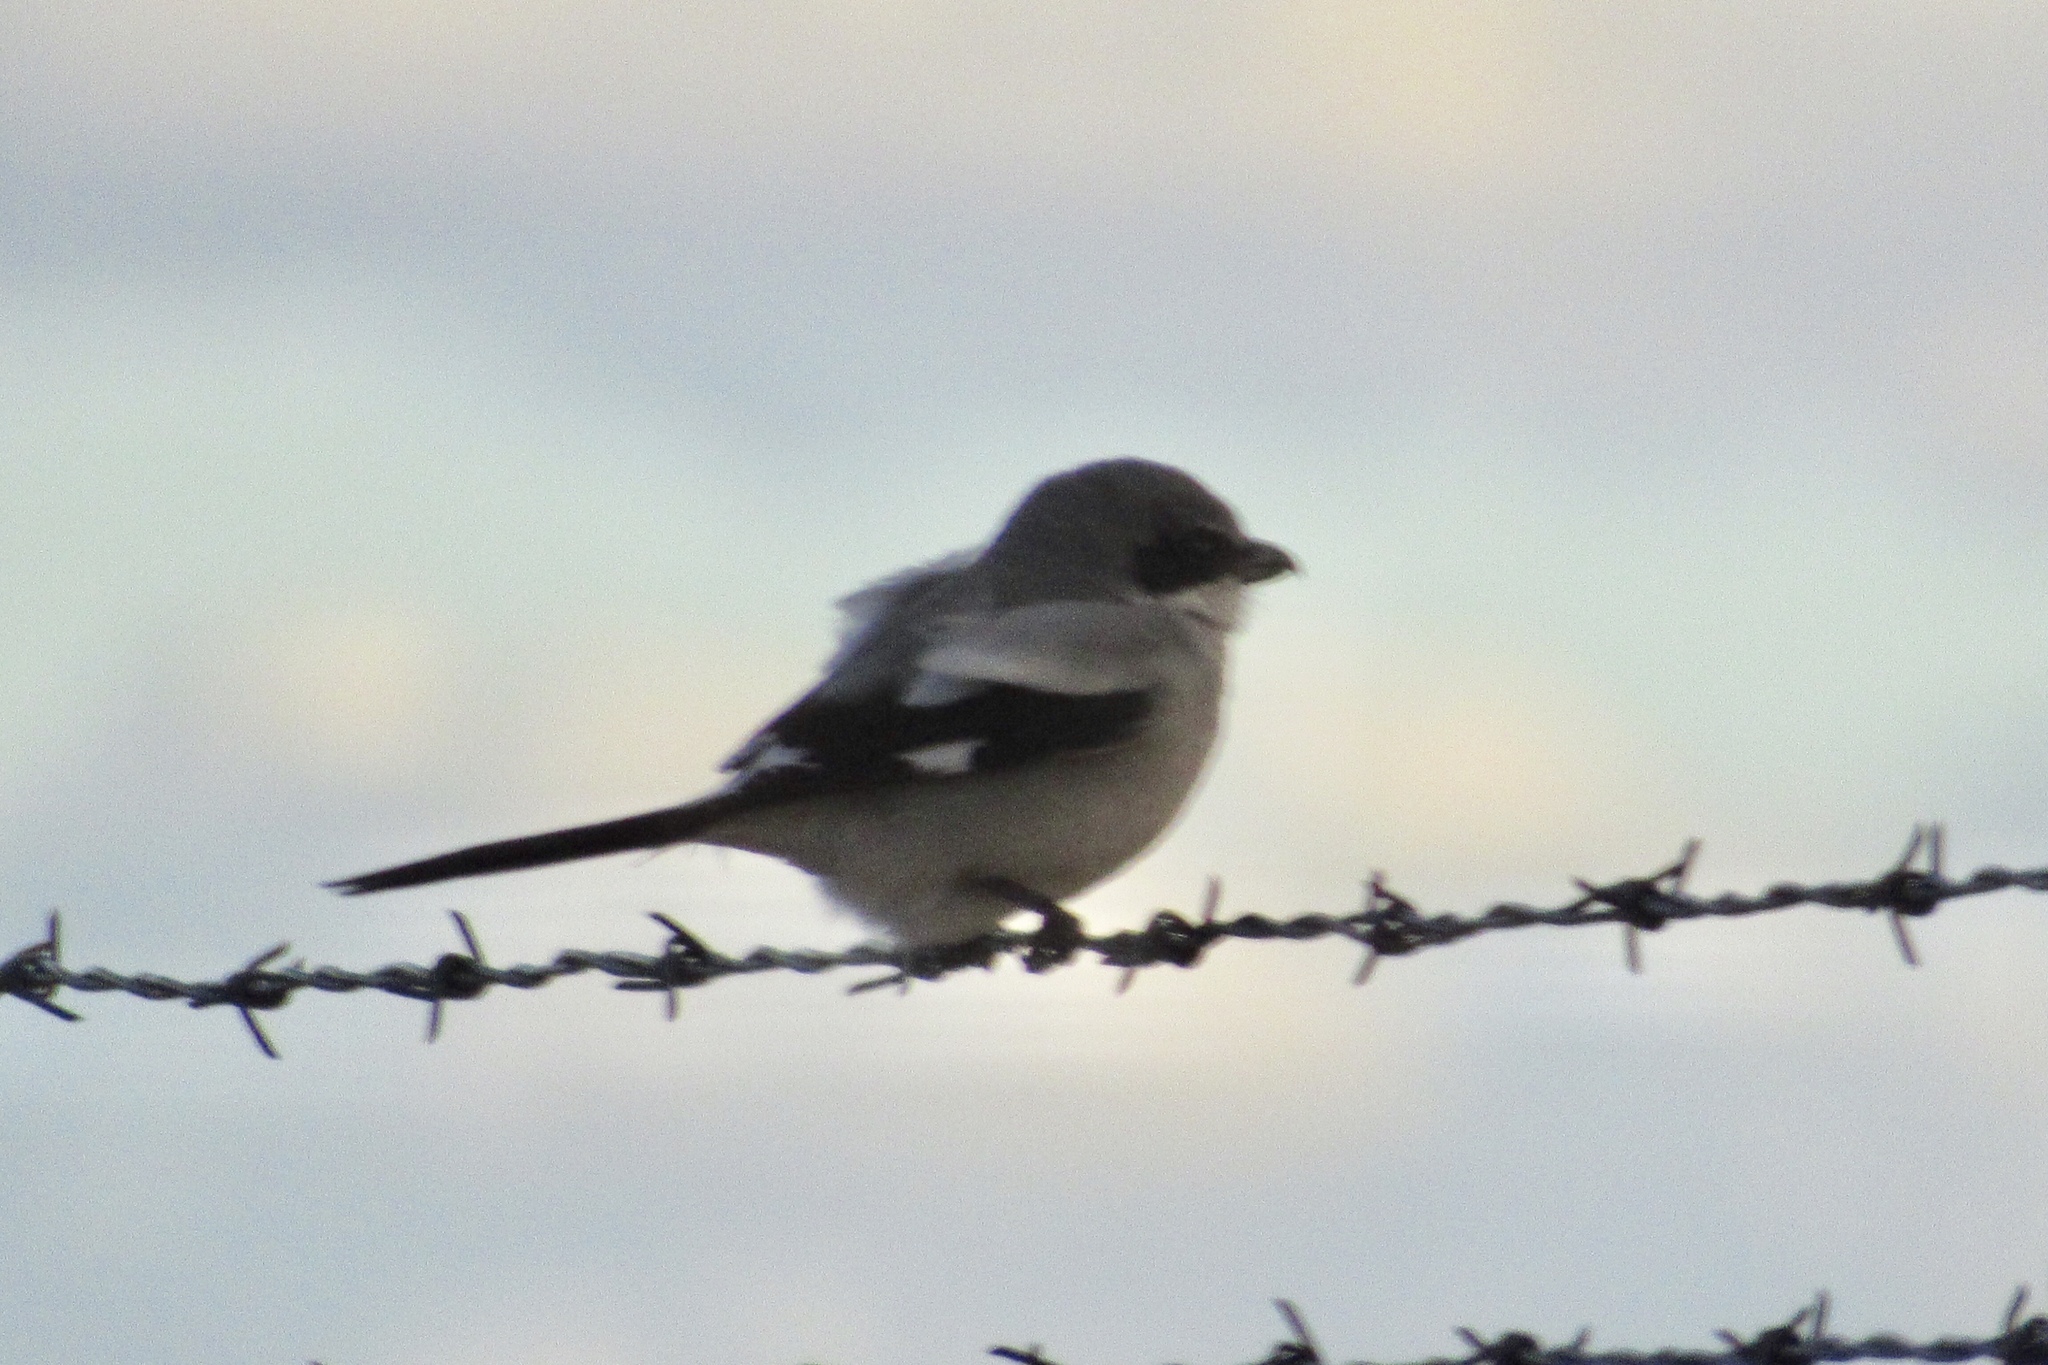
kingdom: Animalia
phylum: Chordata
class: Aves
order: Passeriformes
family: Laniidae
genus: Lanius
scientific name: Lanius ludovicianus
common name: Loggerhead shrike
